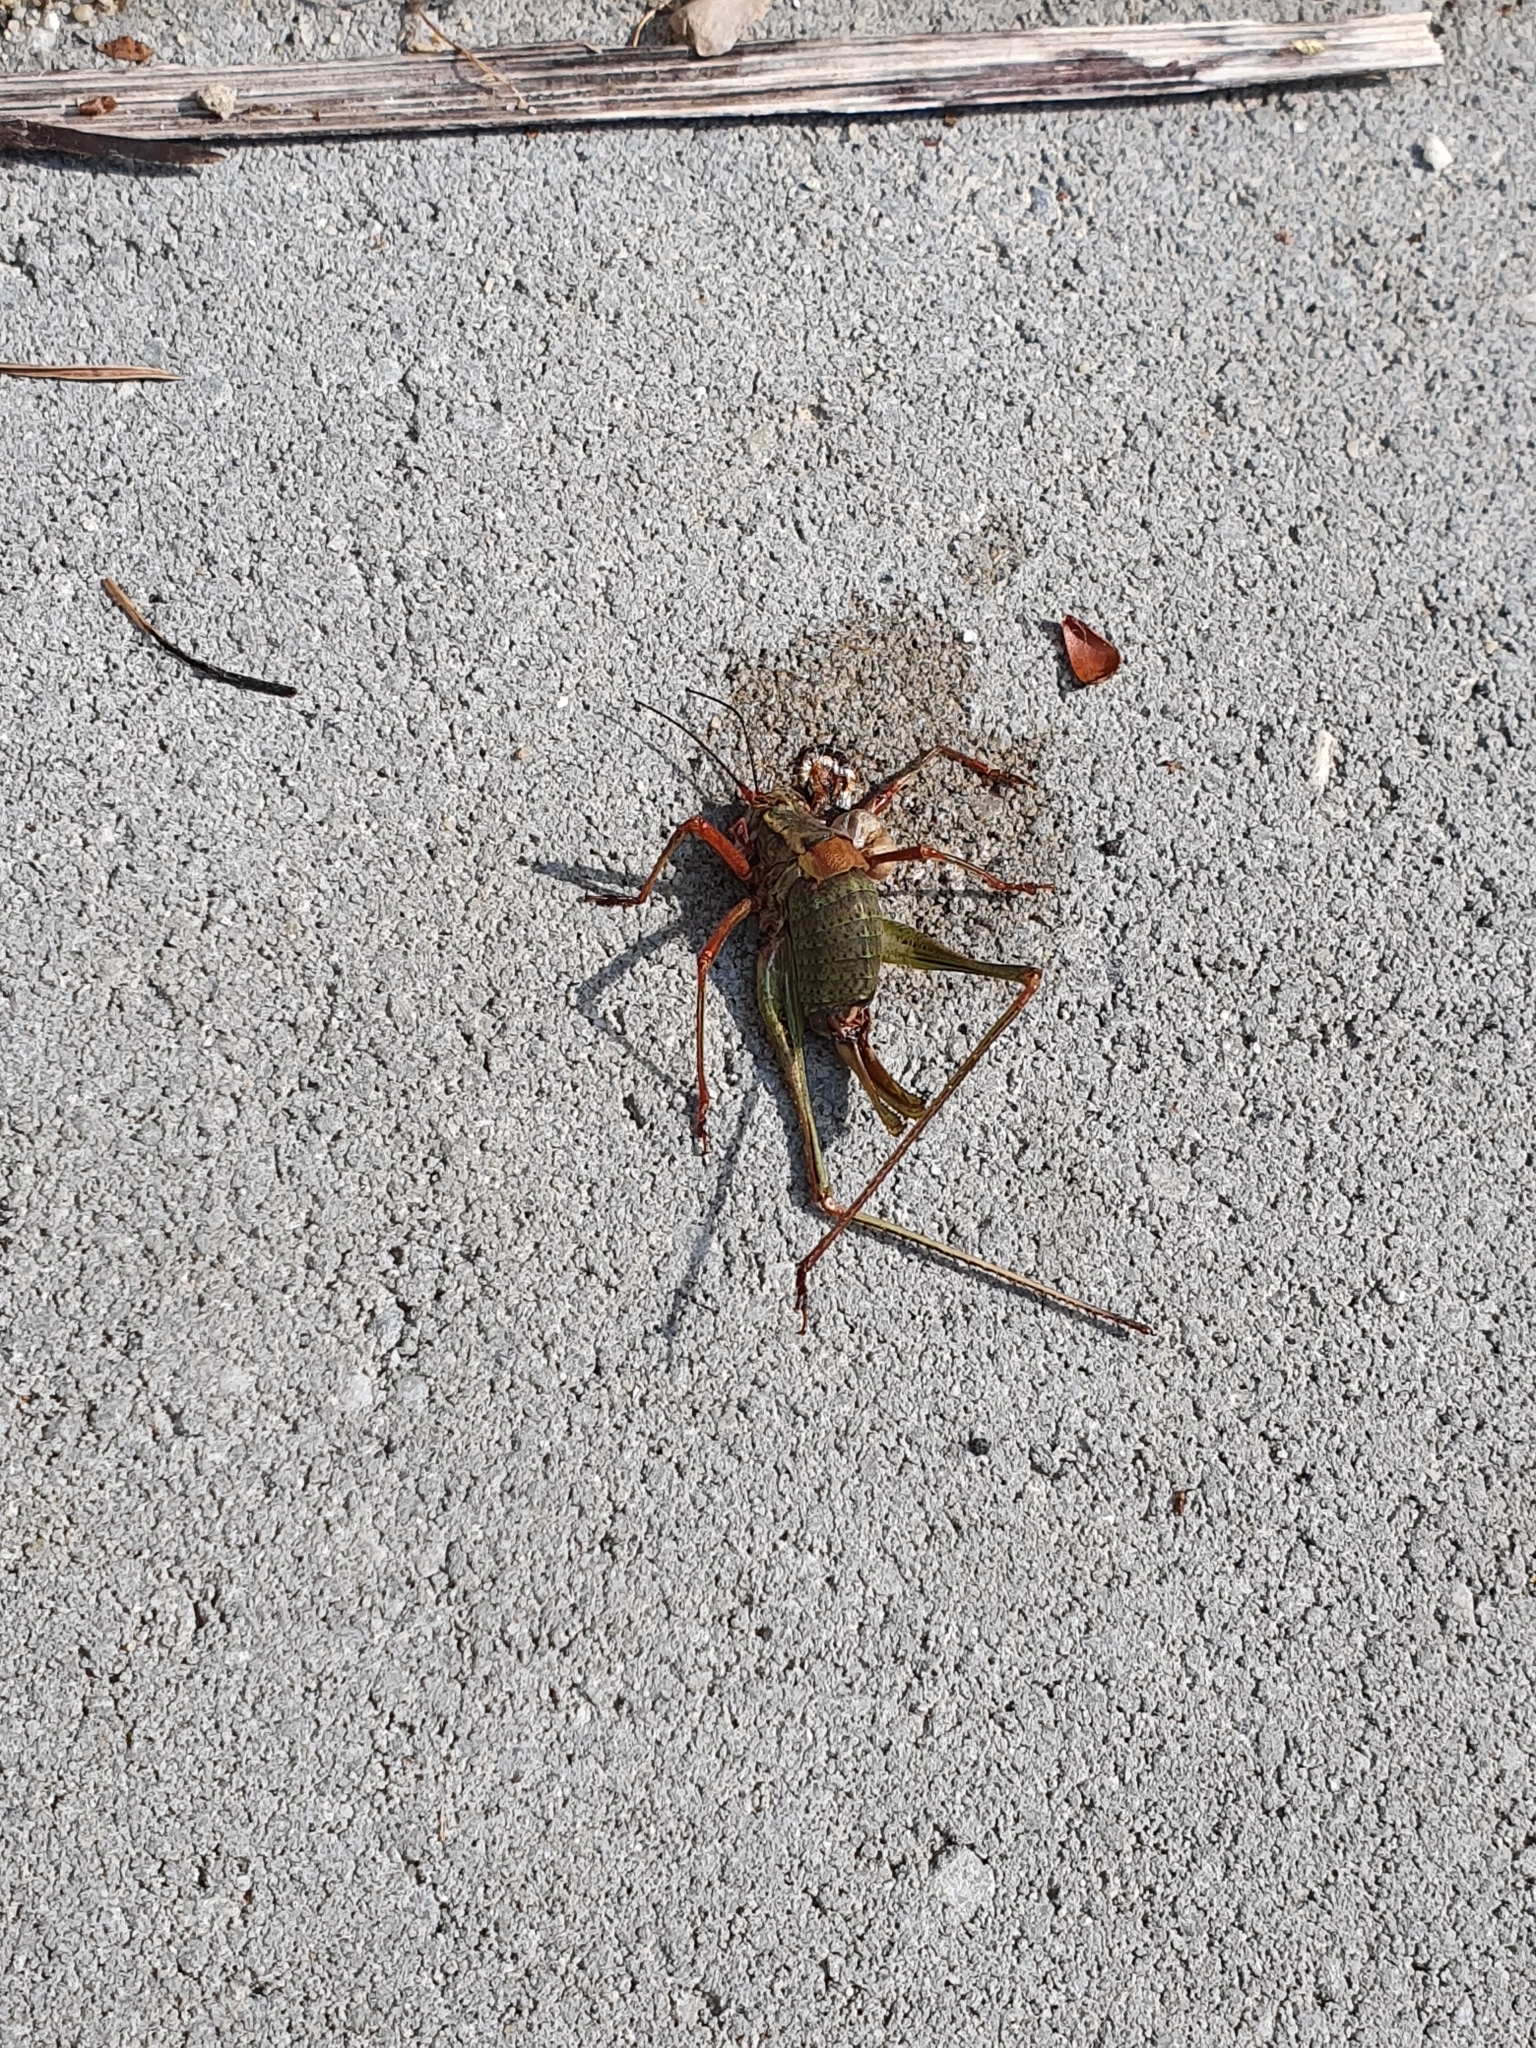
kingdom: Animalia
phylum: Arthropoda
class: Insecta
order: Orthoptera
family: Tettigoniidae
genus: Barbitistes
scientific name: Barbitistes serricauda
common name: Saw-tailed bush-cricket
